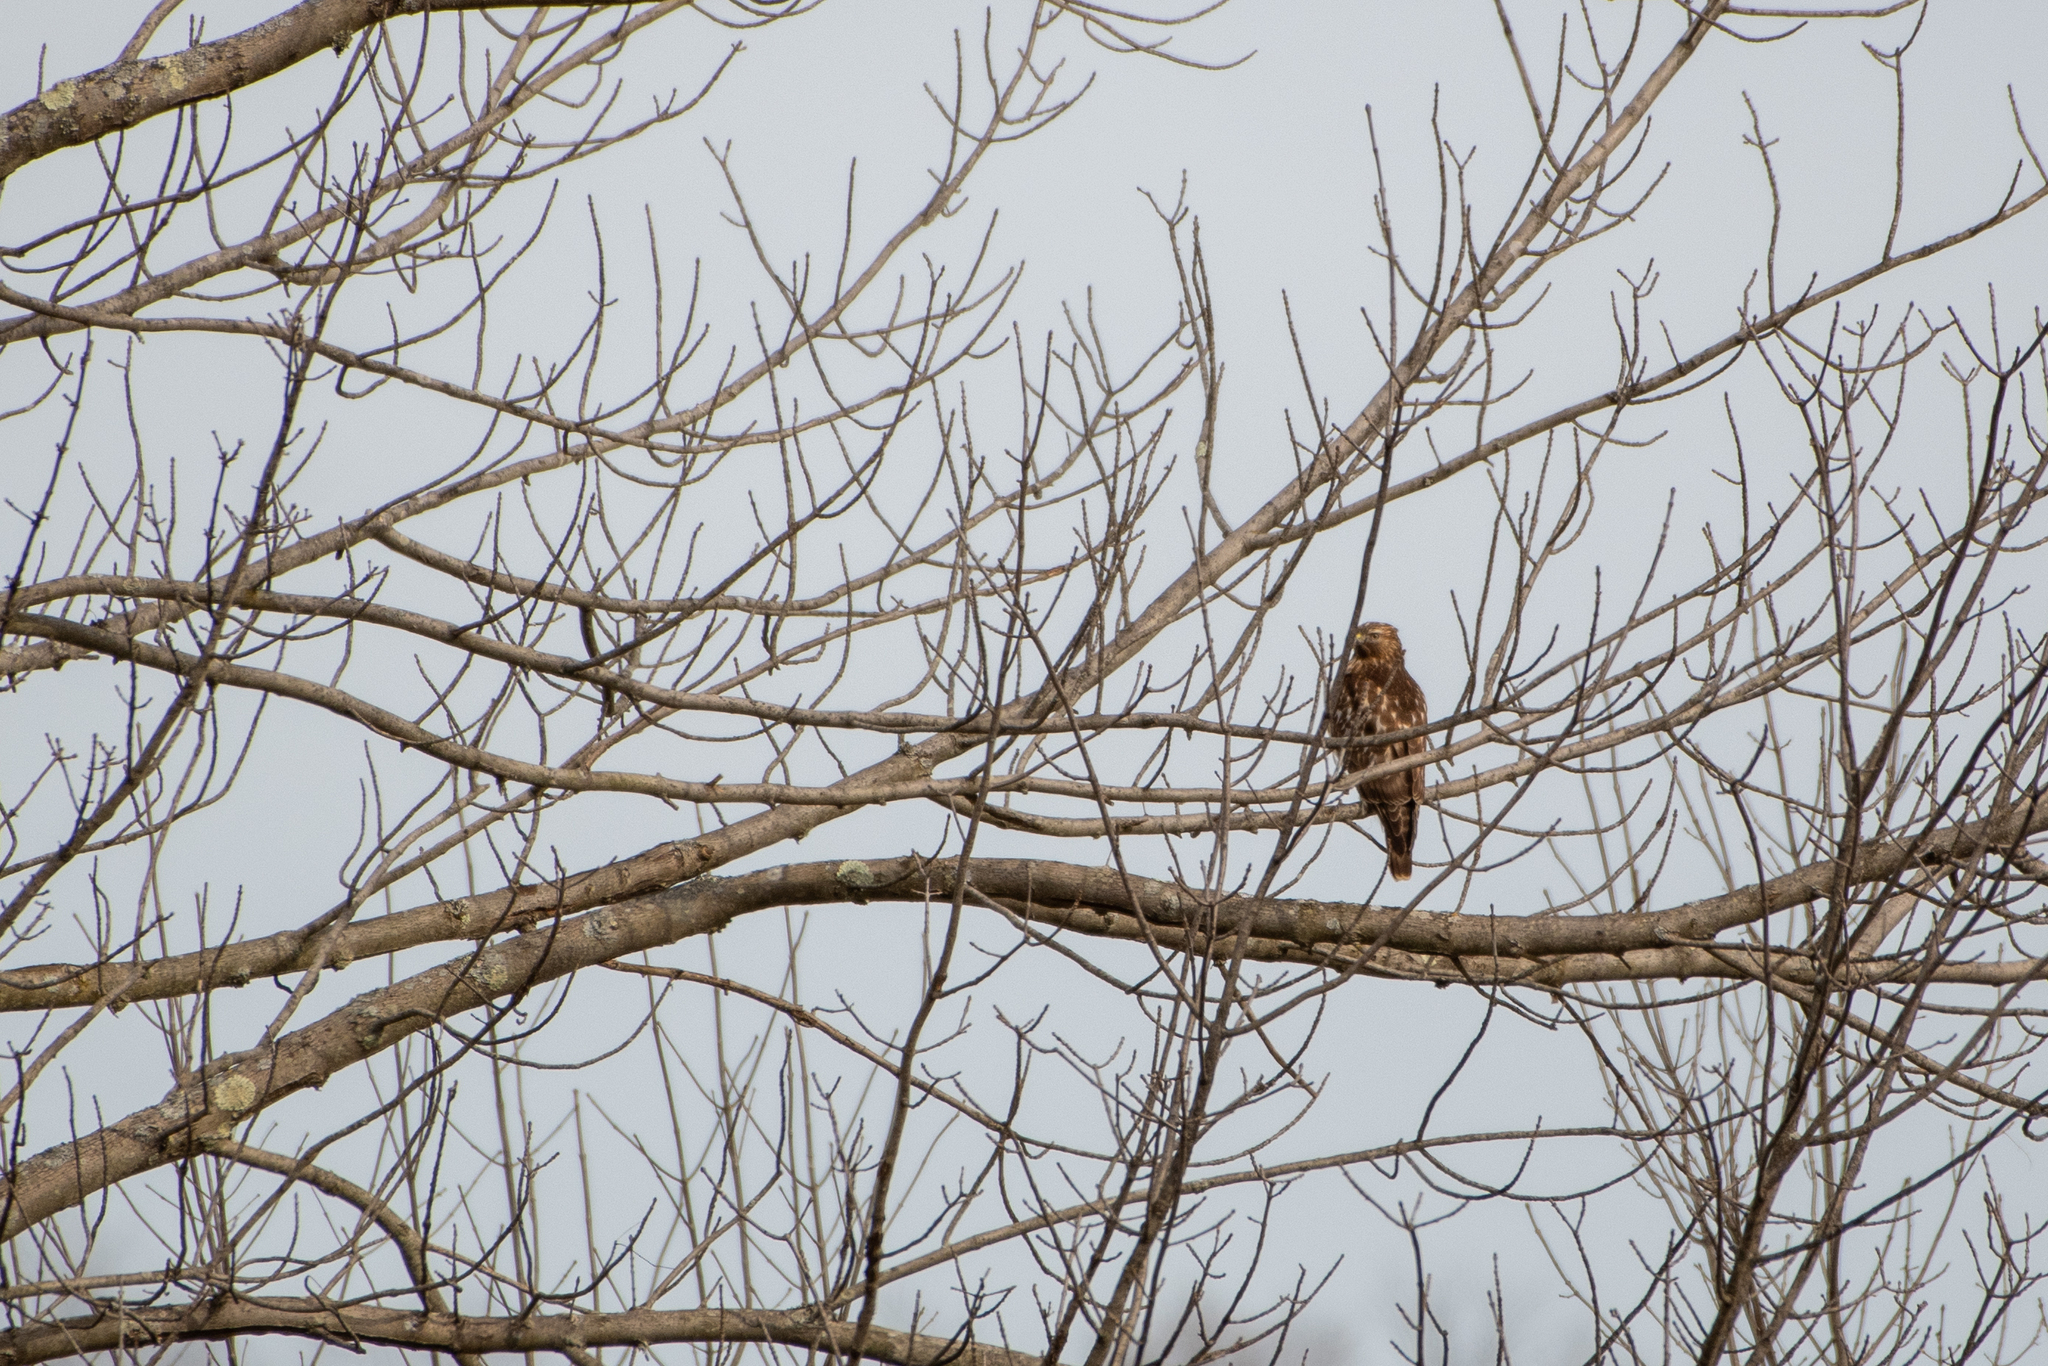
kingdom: Animalia
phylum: Chordata
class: Aves
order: Accipitriformes
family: Accipitridae
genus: Buteo
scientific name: Buteo lineatus
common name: Red-shouldered hawk
